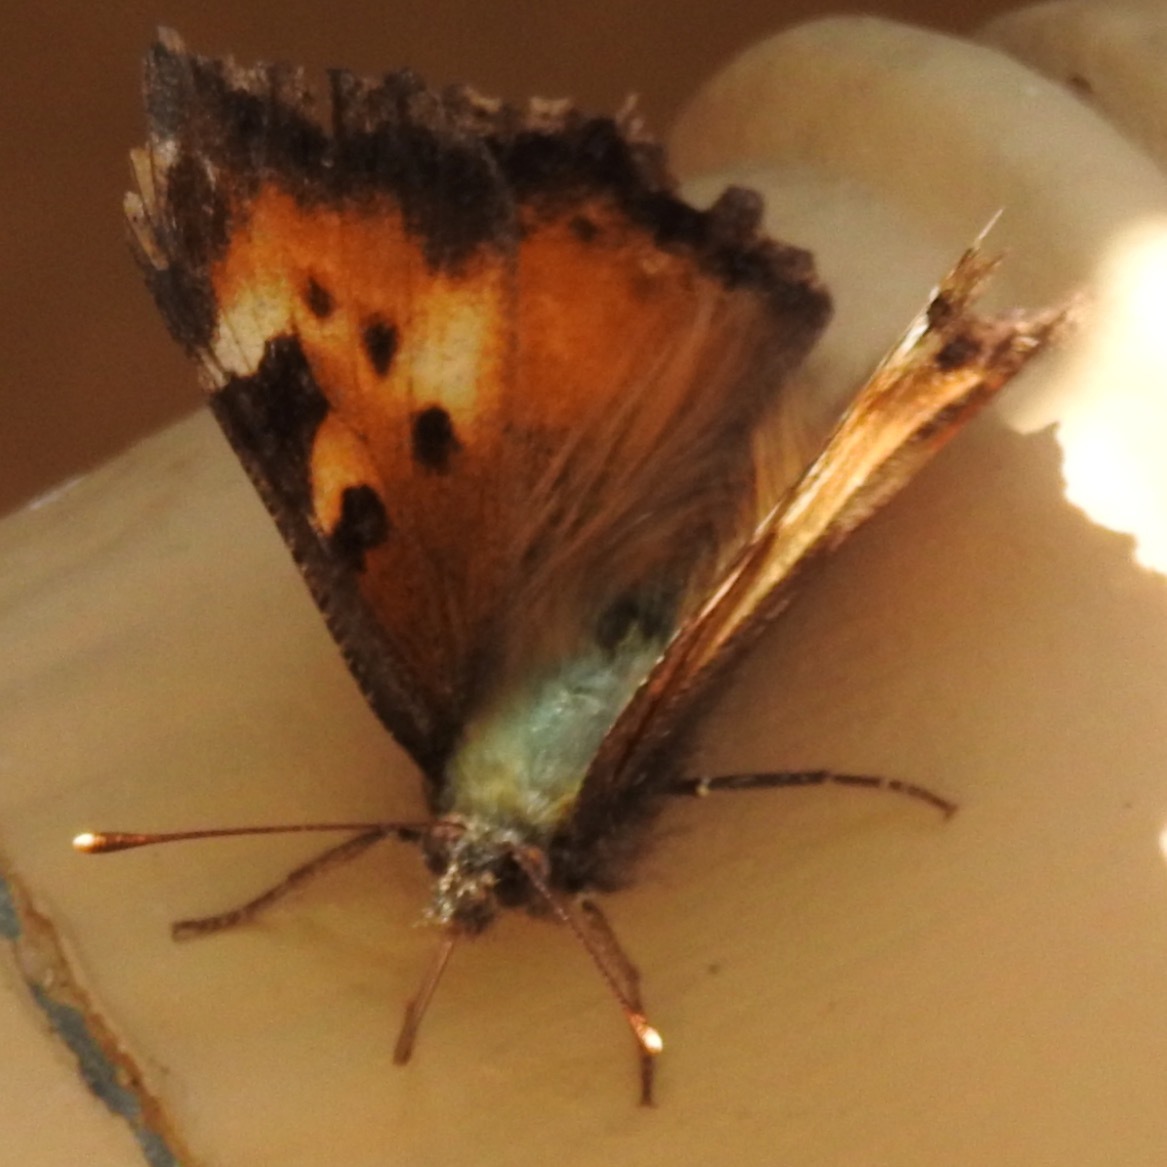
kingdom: Animalia
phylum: Arthropoda
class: Insecta
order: Lepidoptera
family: Nymphalidae
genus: Nymphalis
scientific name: Nymphalis californica
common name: California tortoiseshell
